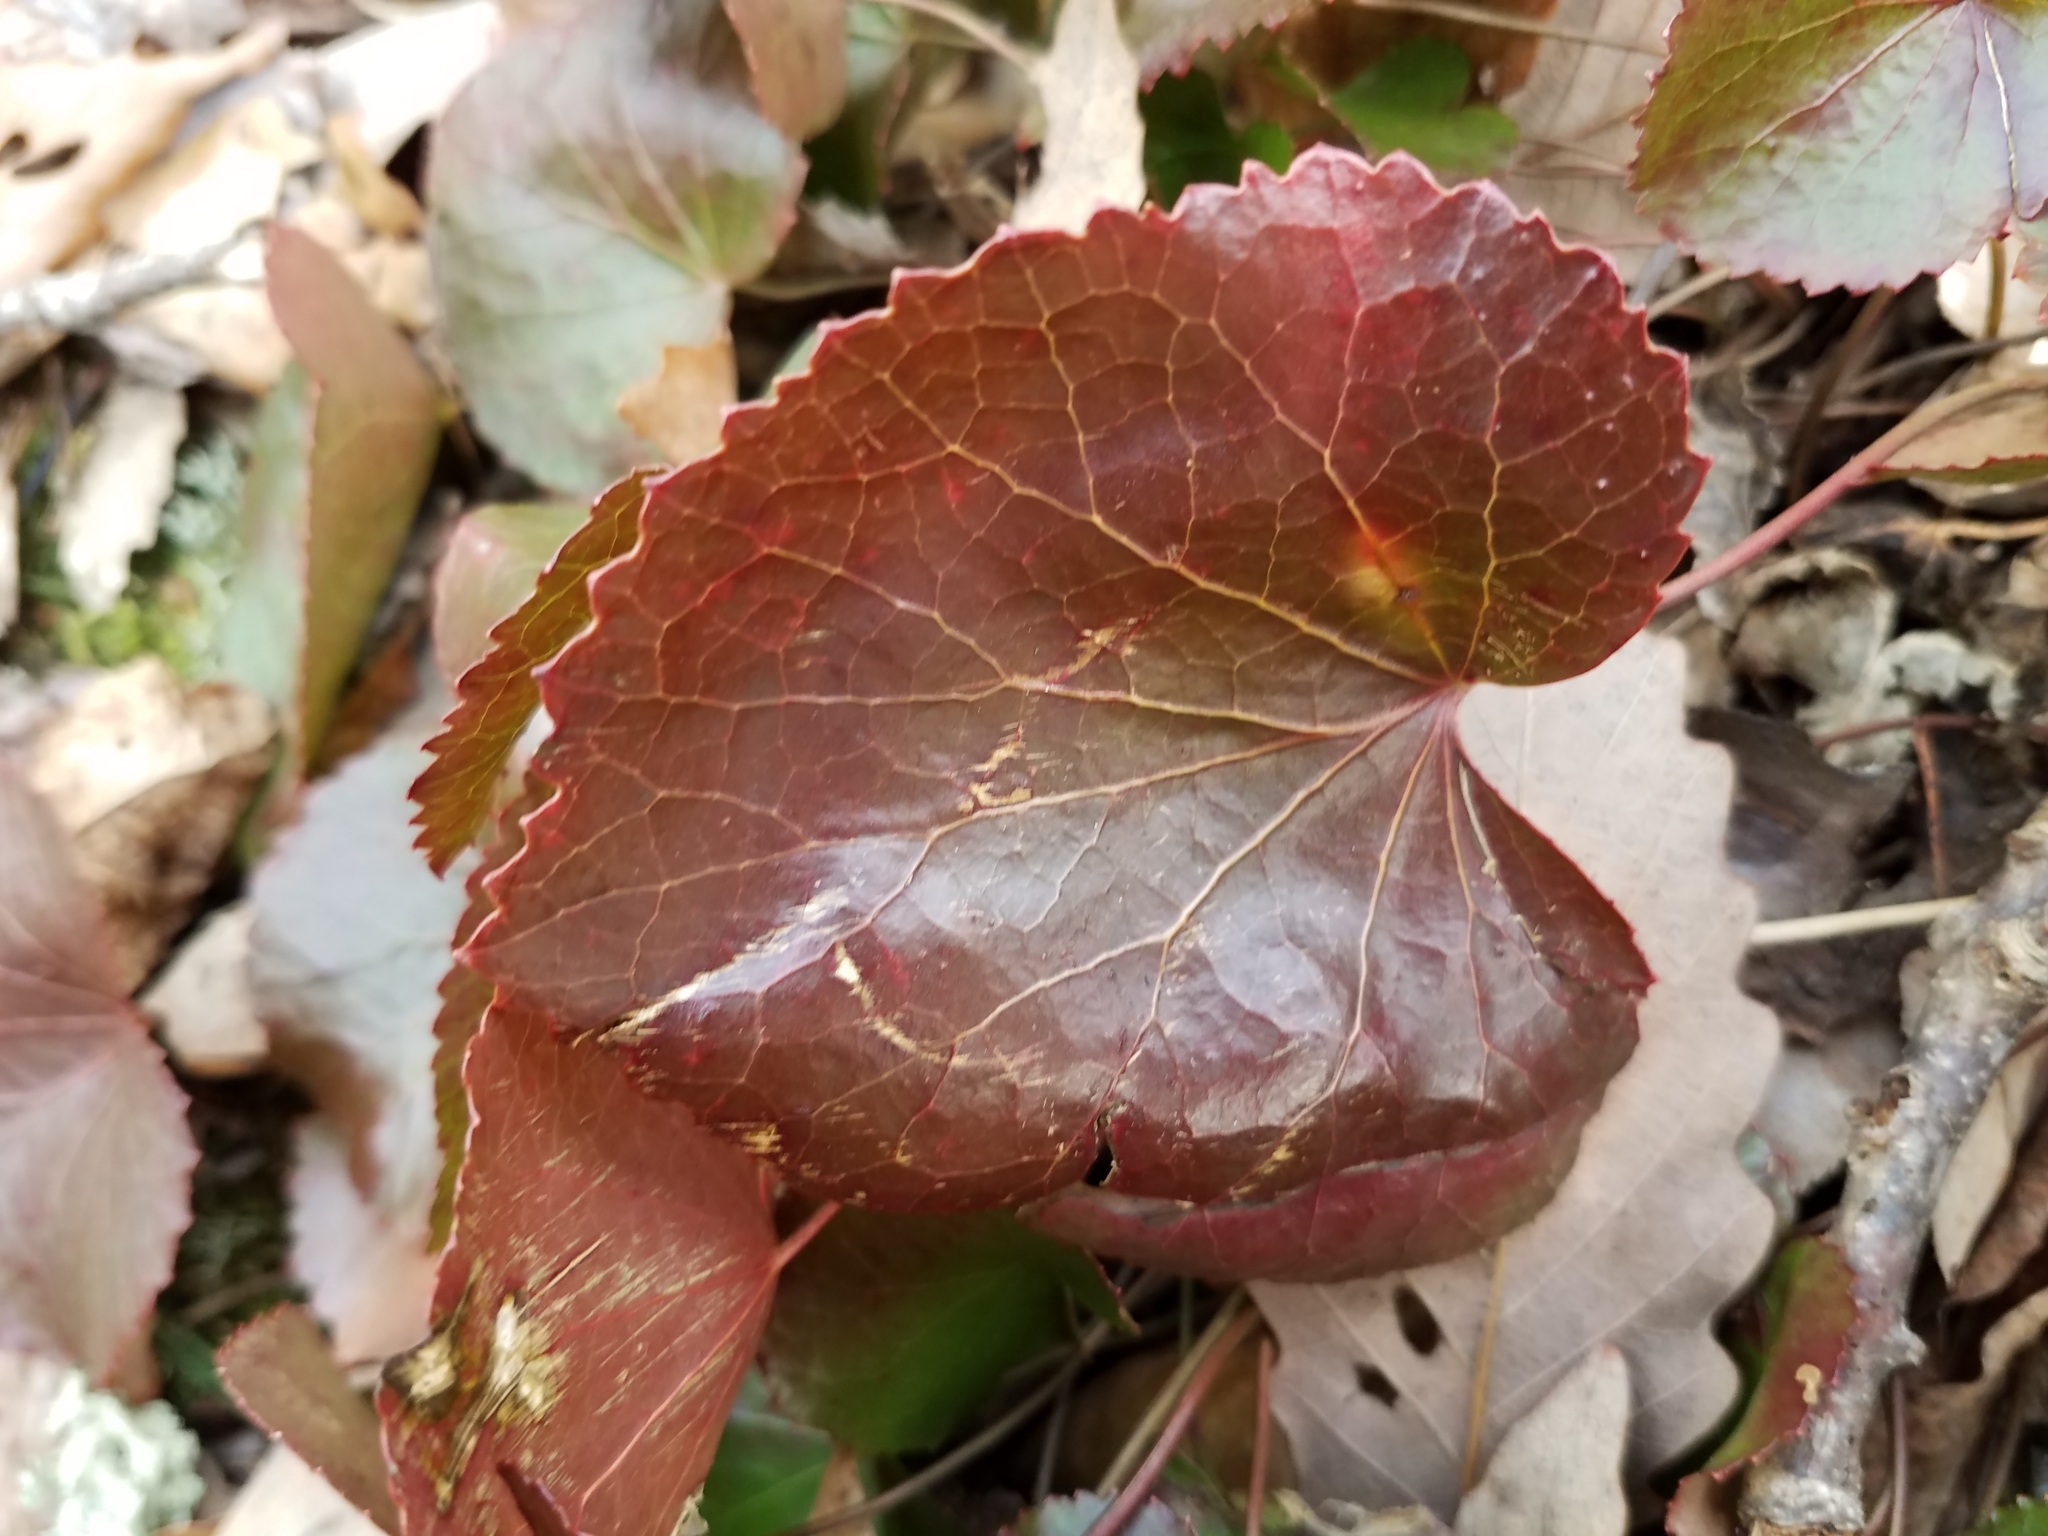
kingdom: Plantae
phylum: Tracheophyta
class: Magnoliopsida
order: Ericales
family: Diapensiaceae
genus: Galax
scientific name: Galax urceolata
